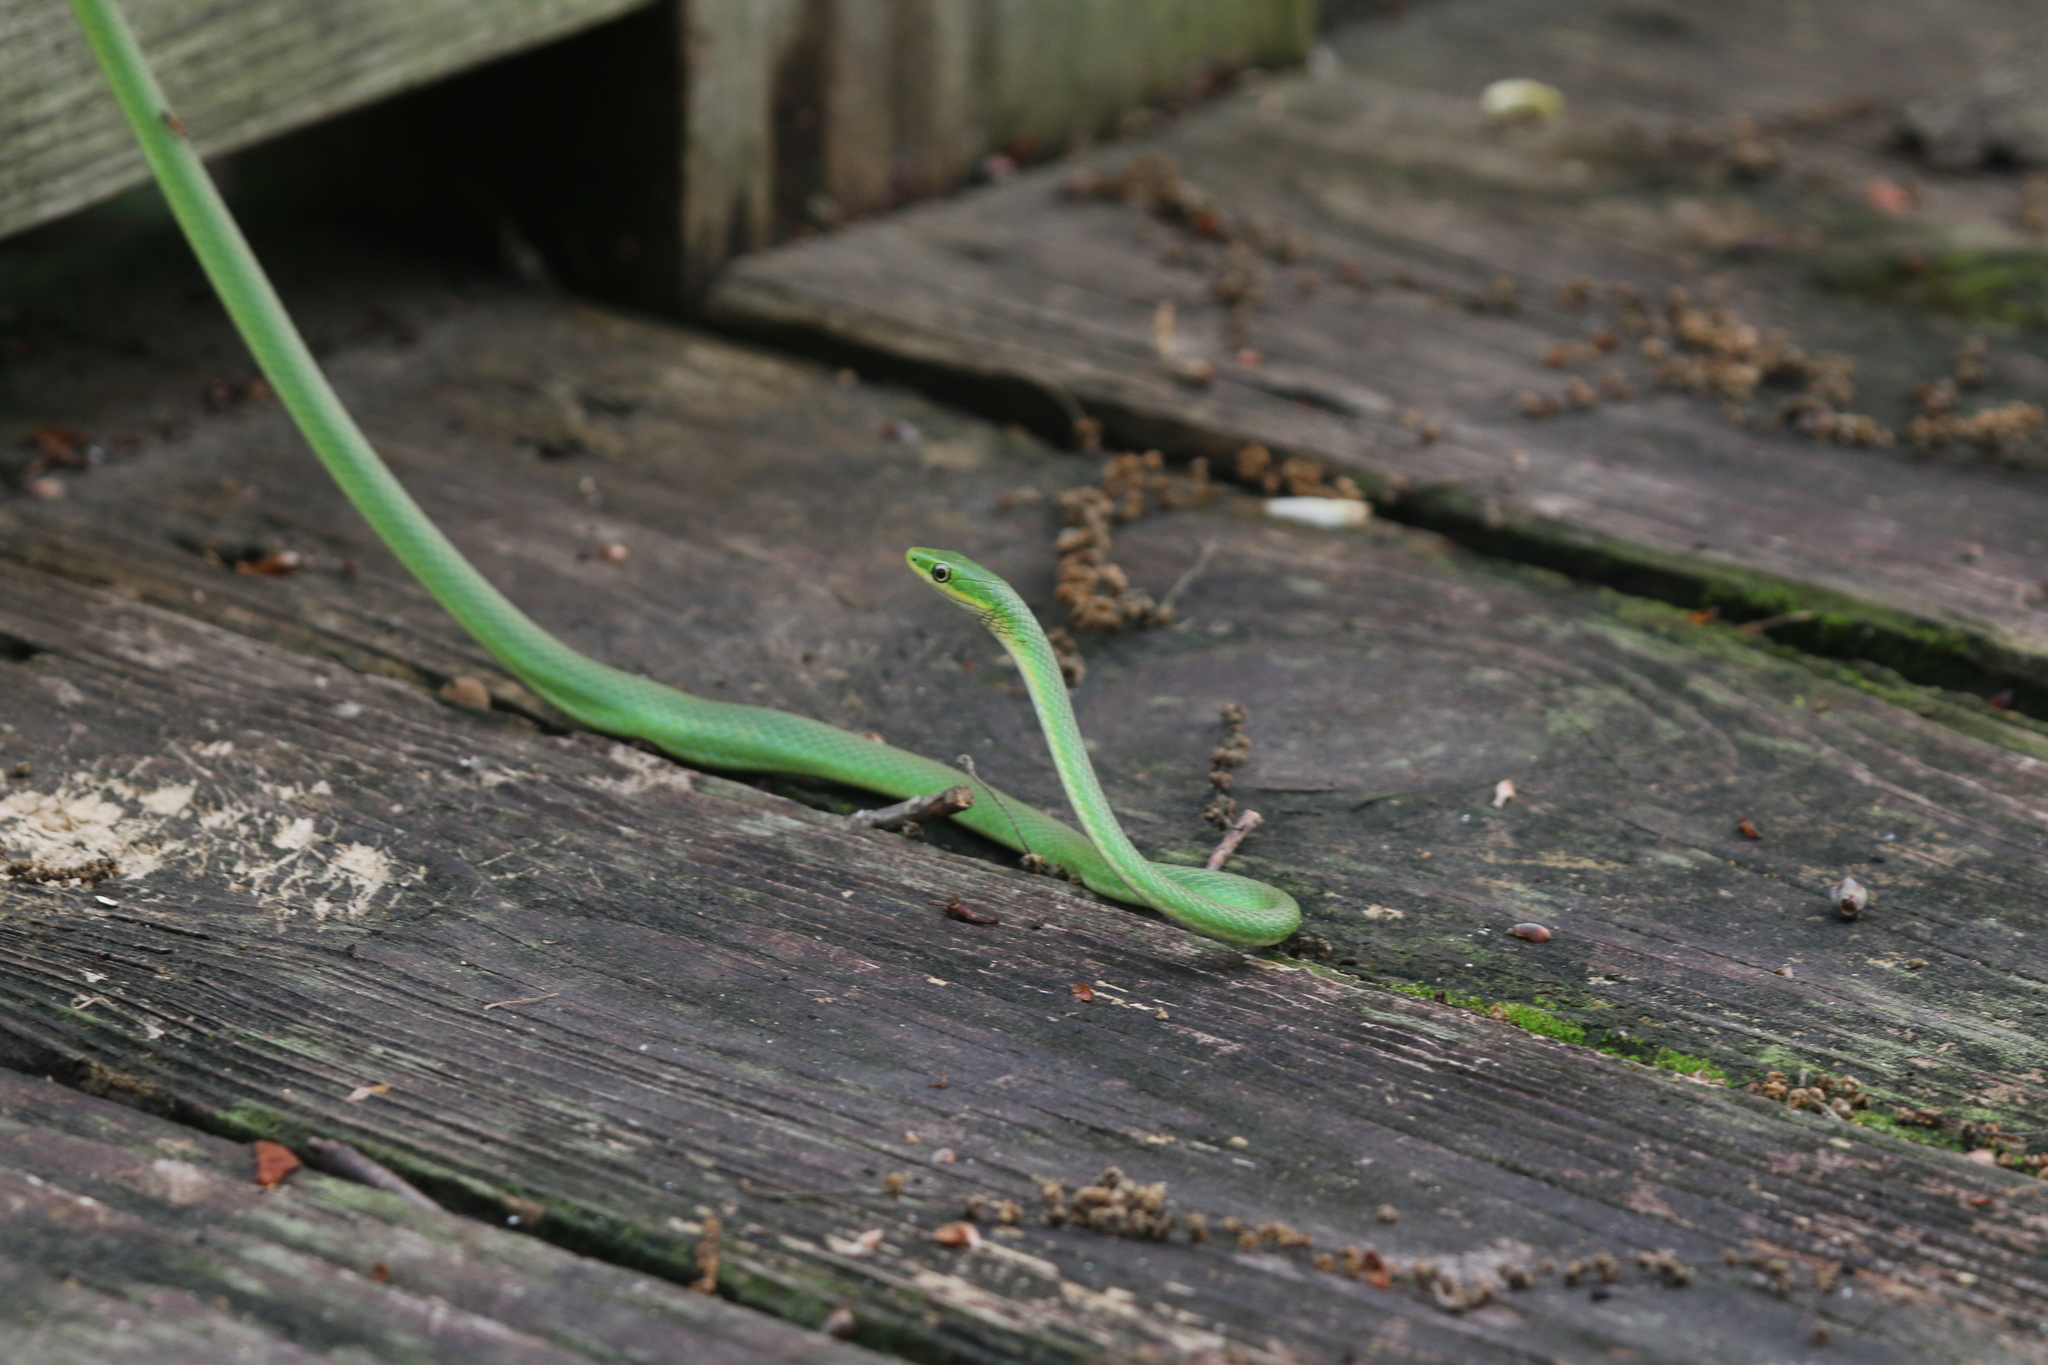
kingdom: Animalia
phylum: Chordata
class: Squamata
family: Colubridae
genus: Opheodrys
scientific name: Opheodrys aestivus
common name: Rough greensnake
